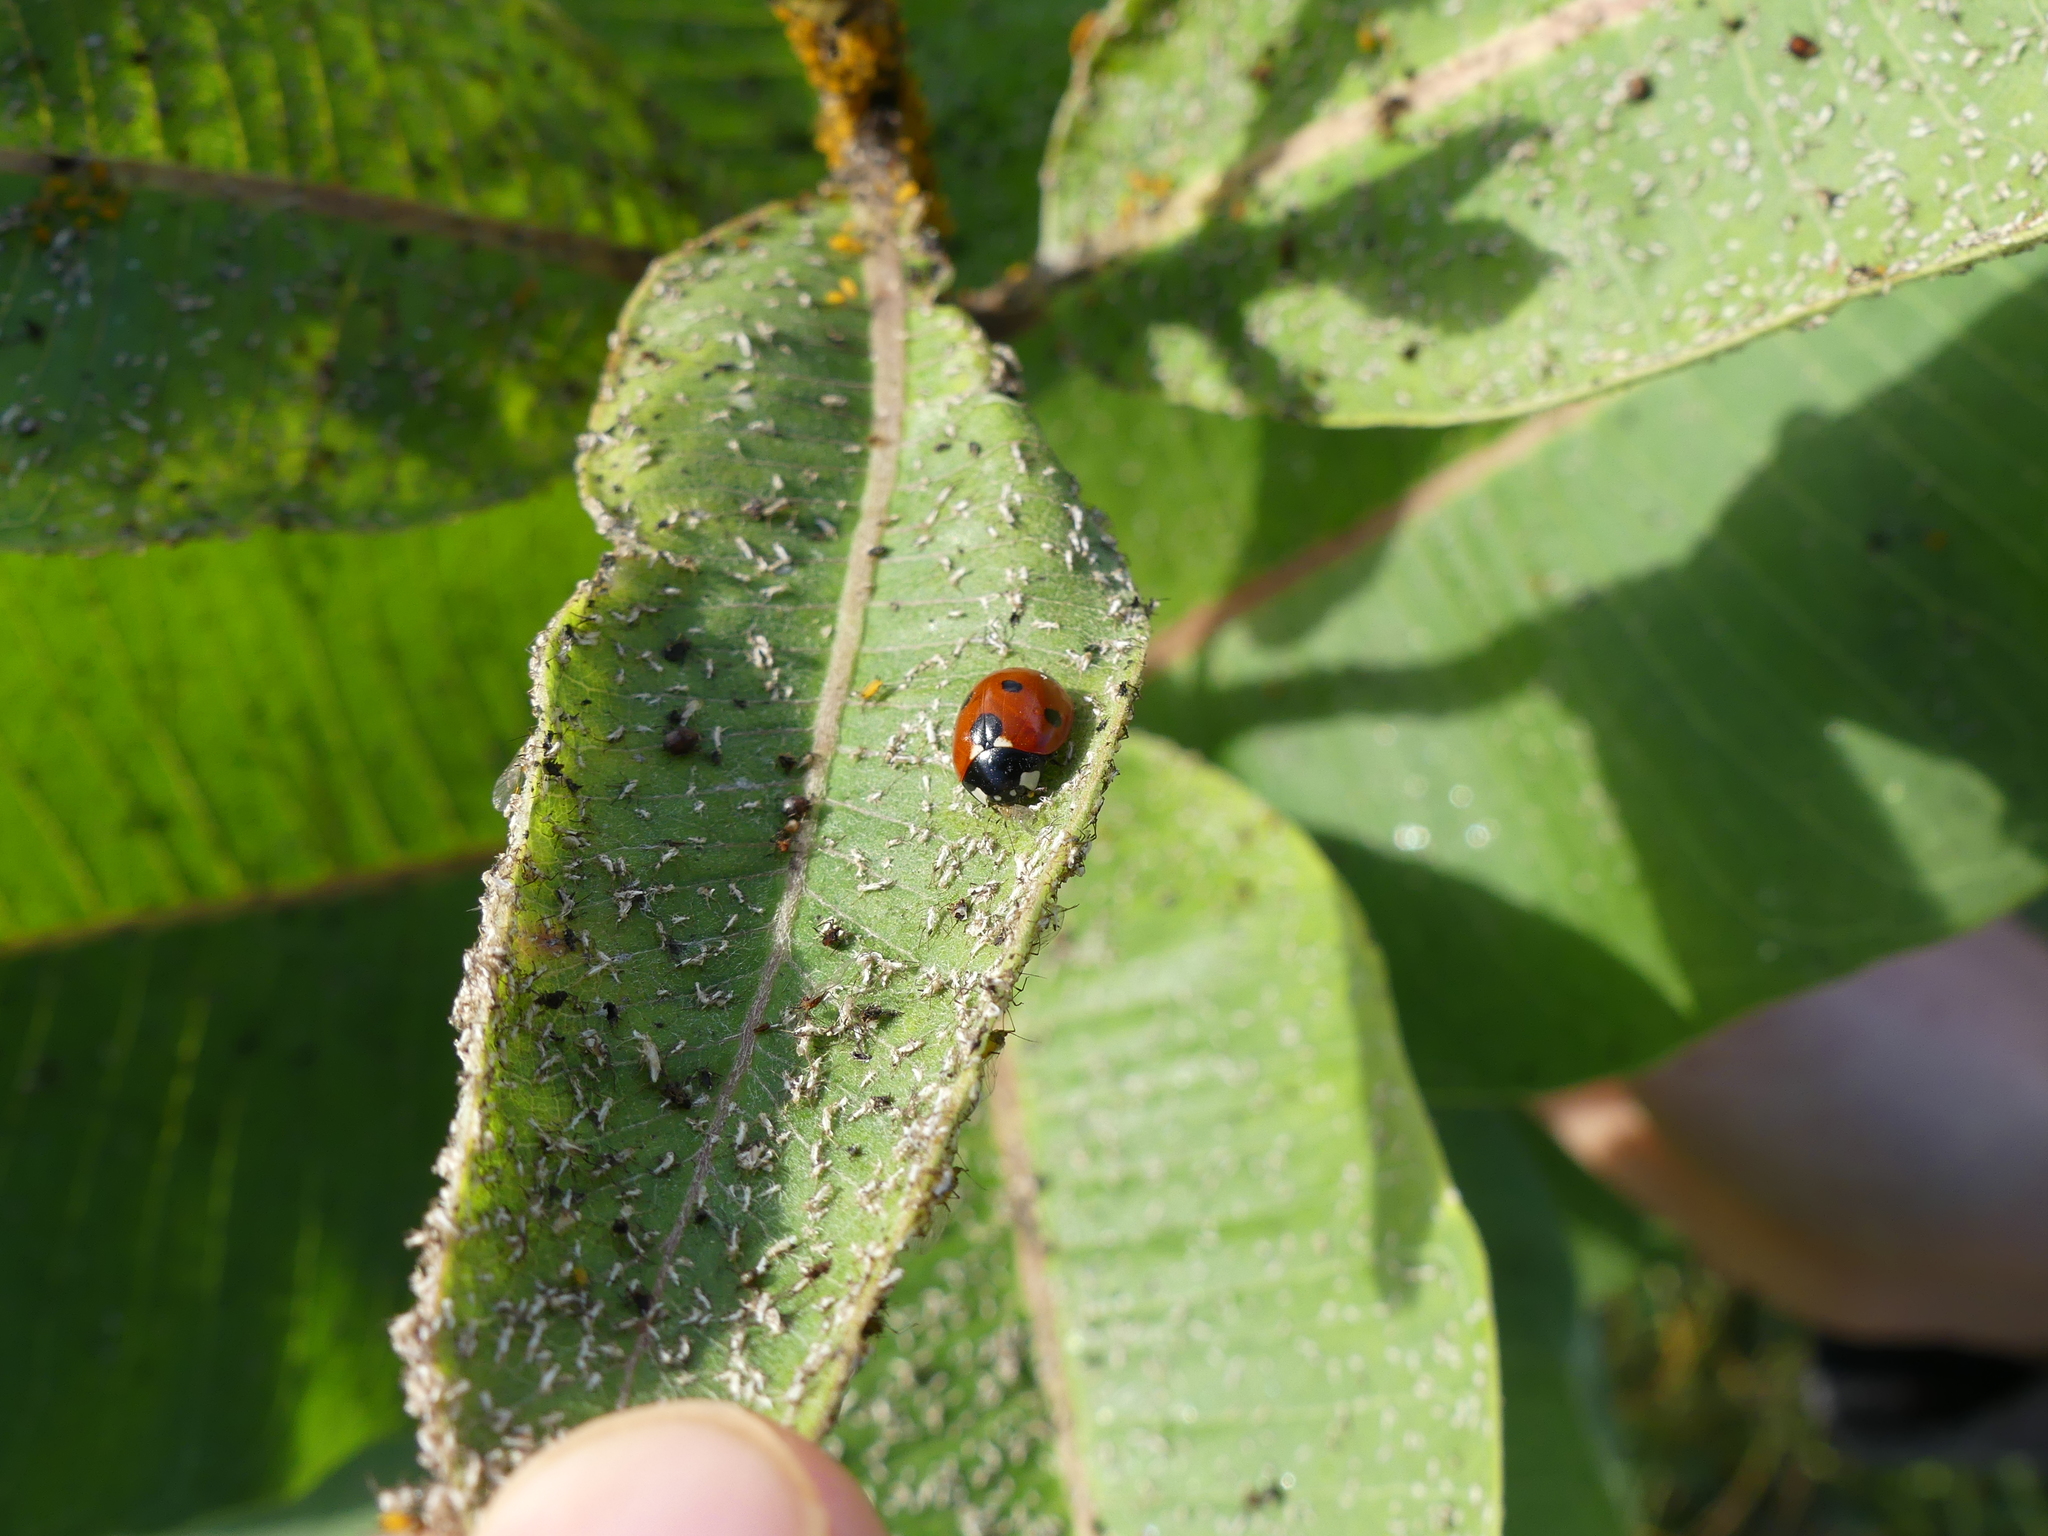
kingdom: Animalia
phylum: Arthropoda
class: Insecta
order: Coleoptera
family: Coccinellidae
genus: Coccinella
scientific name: Coccinella septempunctata
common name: Sevenspotted lady beetle
